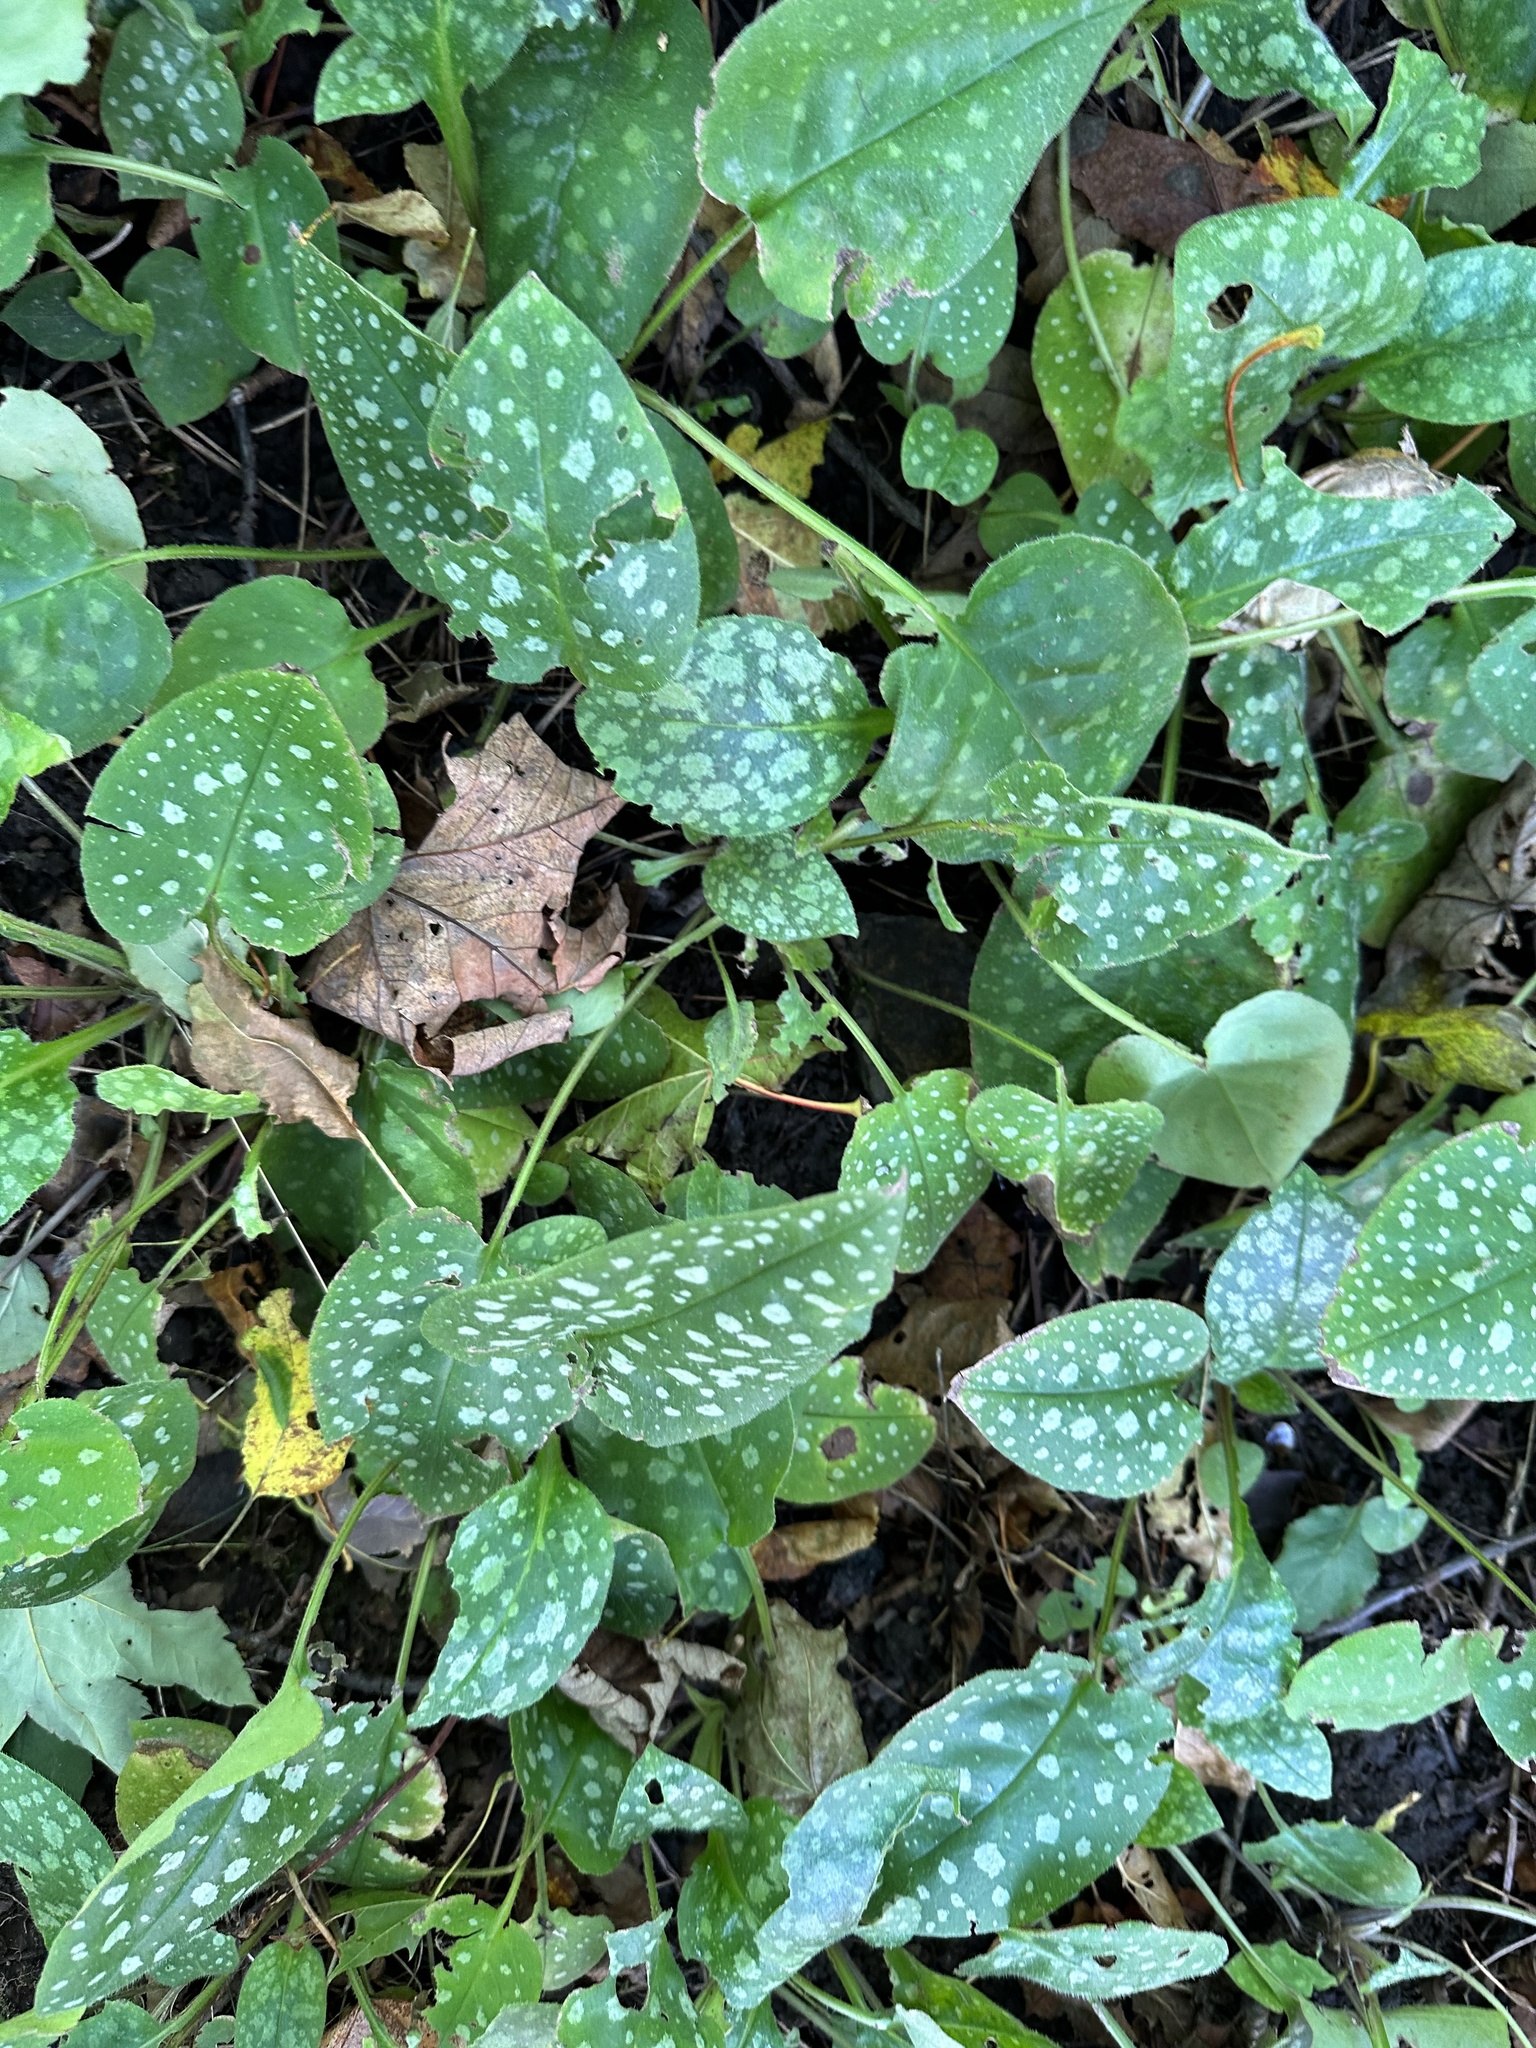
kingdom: Plantae
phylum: Tracheophyta
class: Magnoliopsida
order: Boraginales
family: Boraginaceae
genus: Pulmonaria
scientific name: Pulmonaria officinalis
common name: Lungwort
